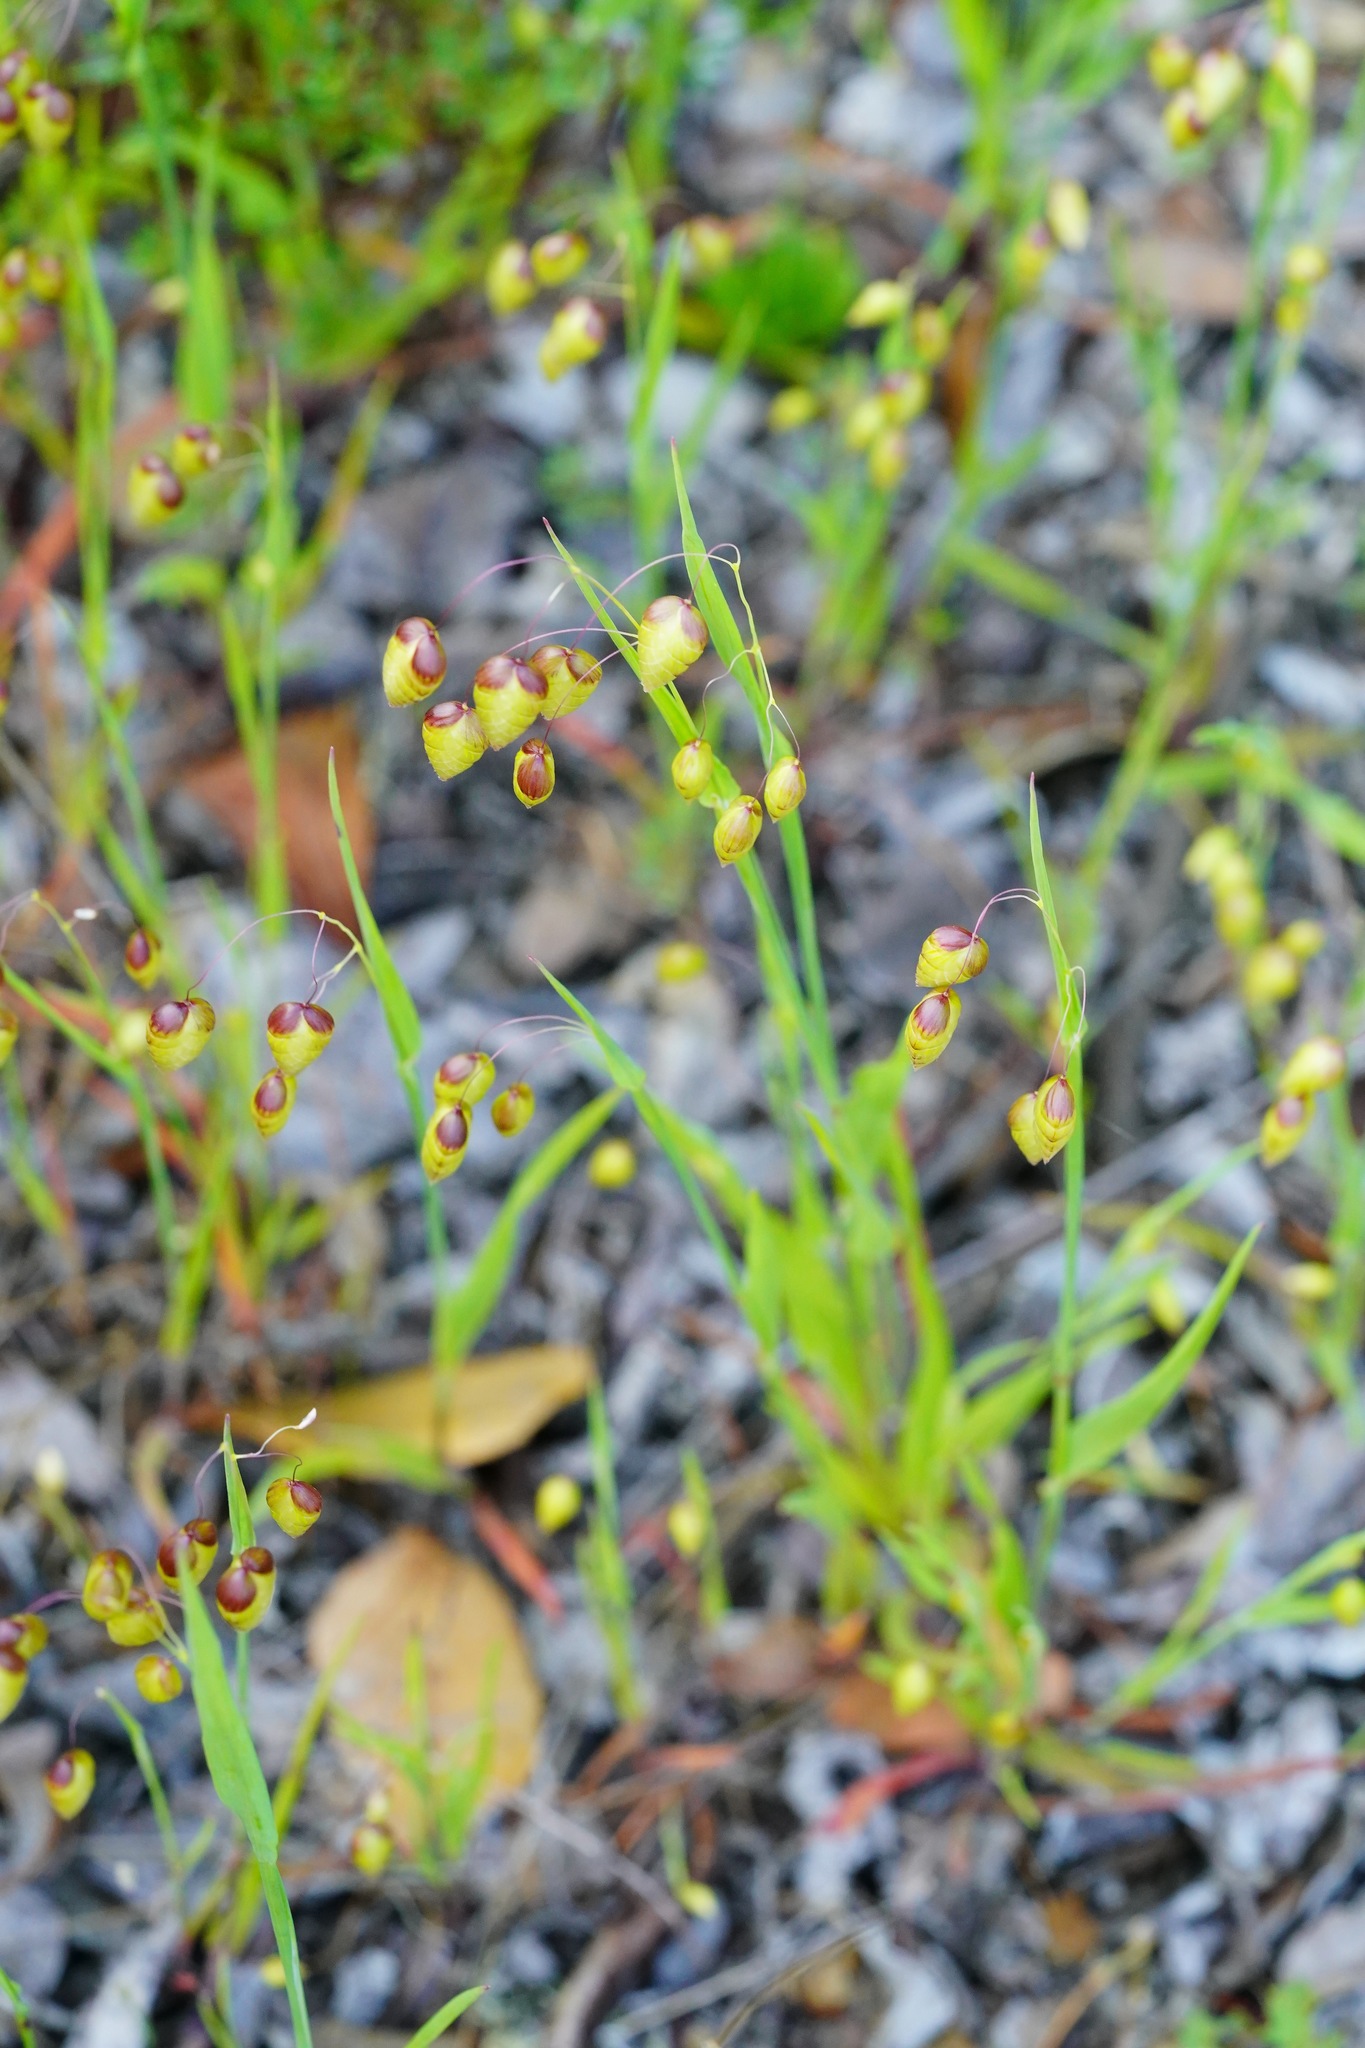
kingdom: Plantae
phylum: Tracheophyta
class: Liliopsida
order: Poales
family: Poaceae
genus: Briza
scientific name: Briza maxima
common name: Big quakinggrass
